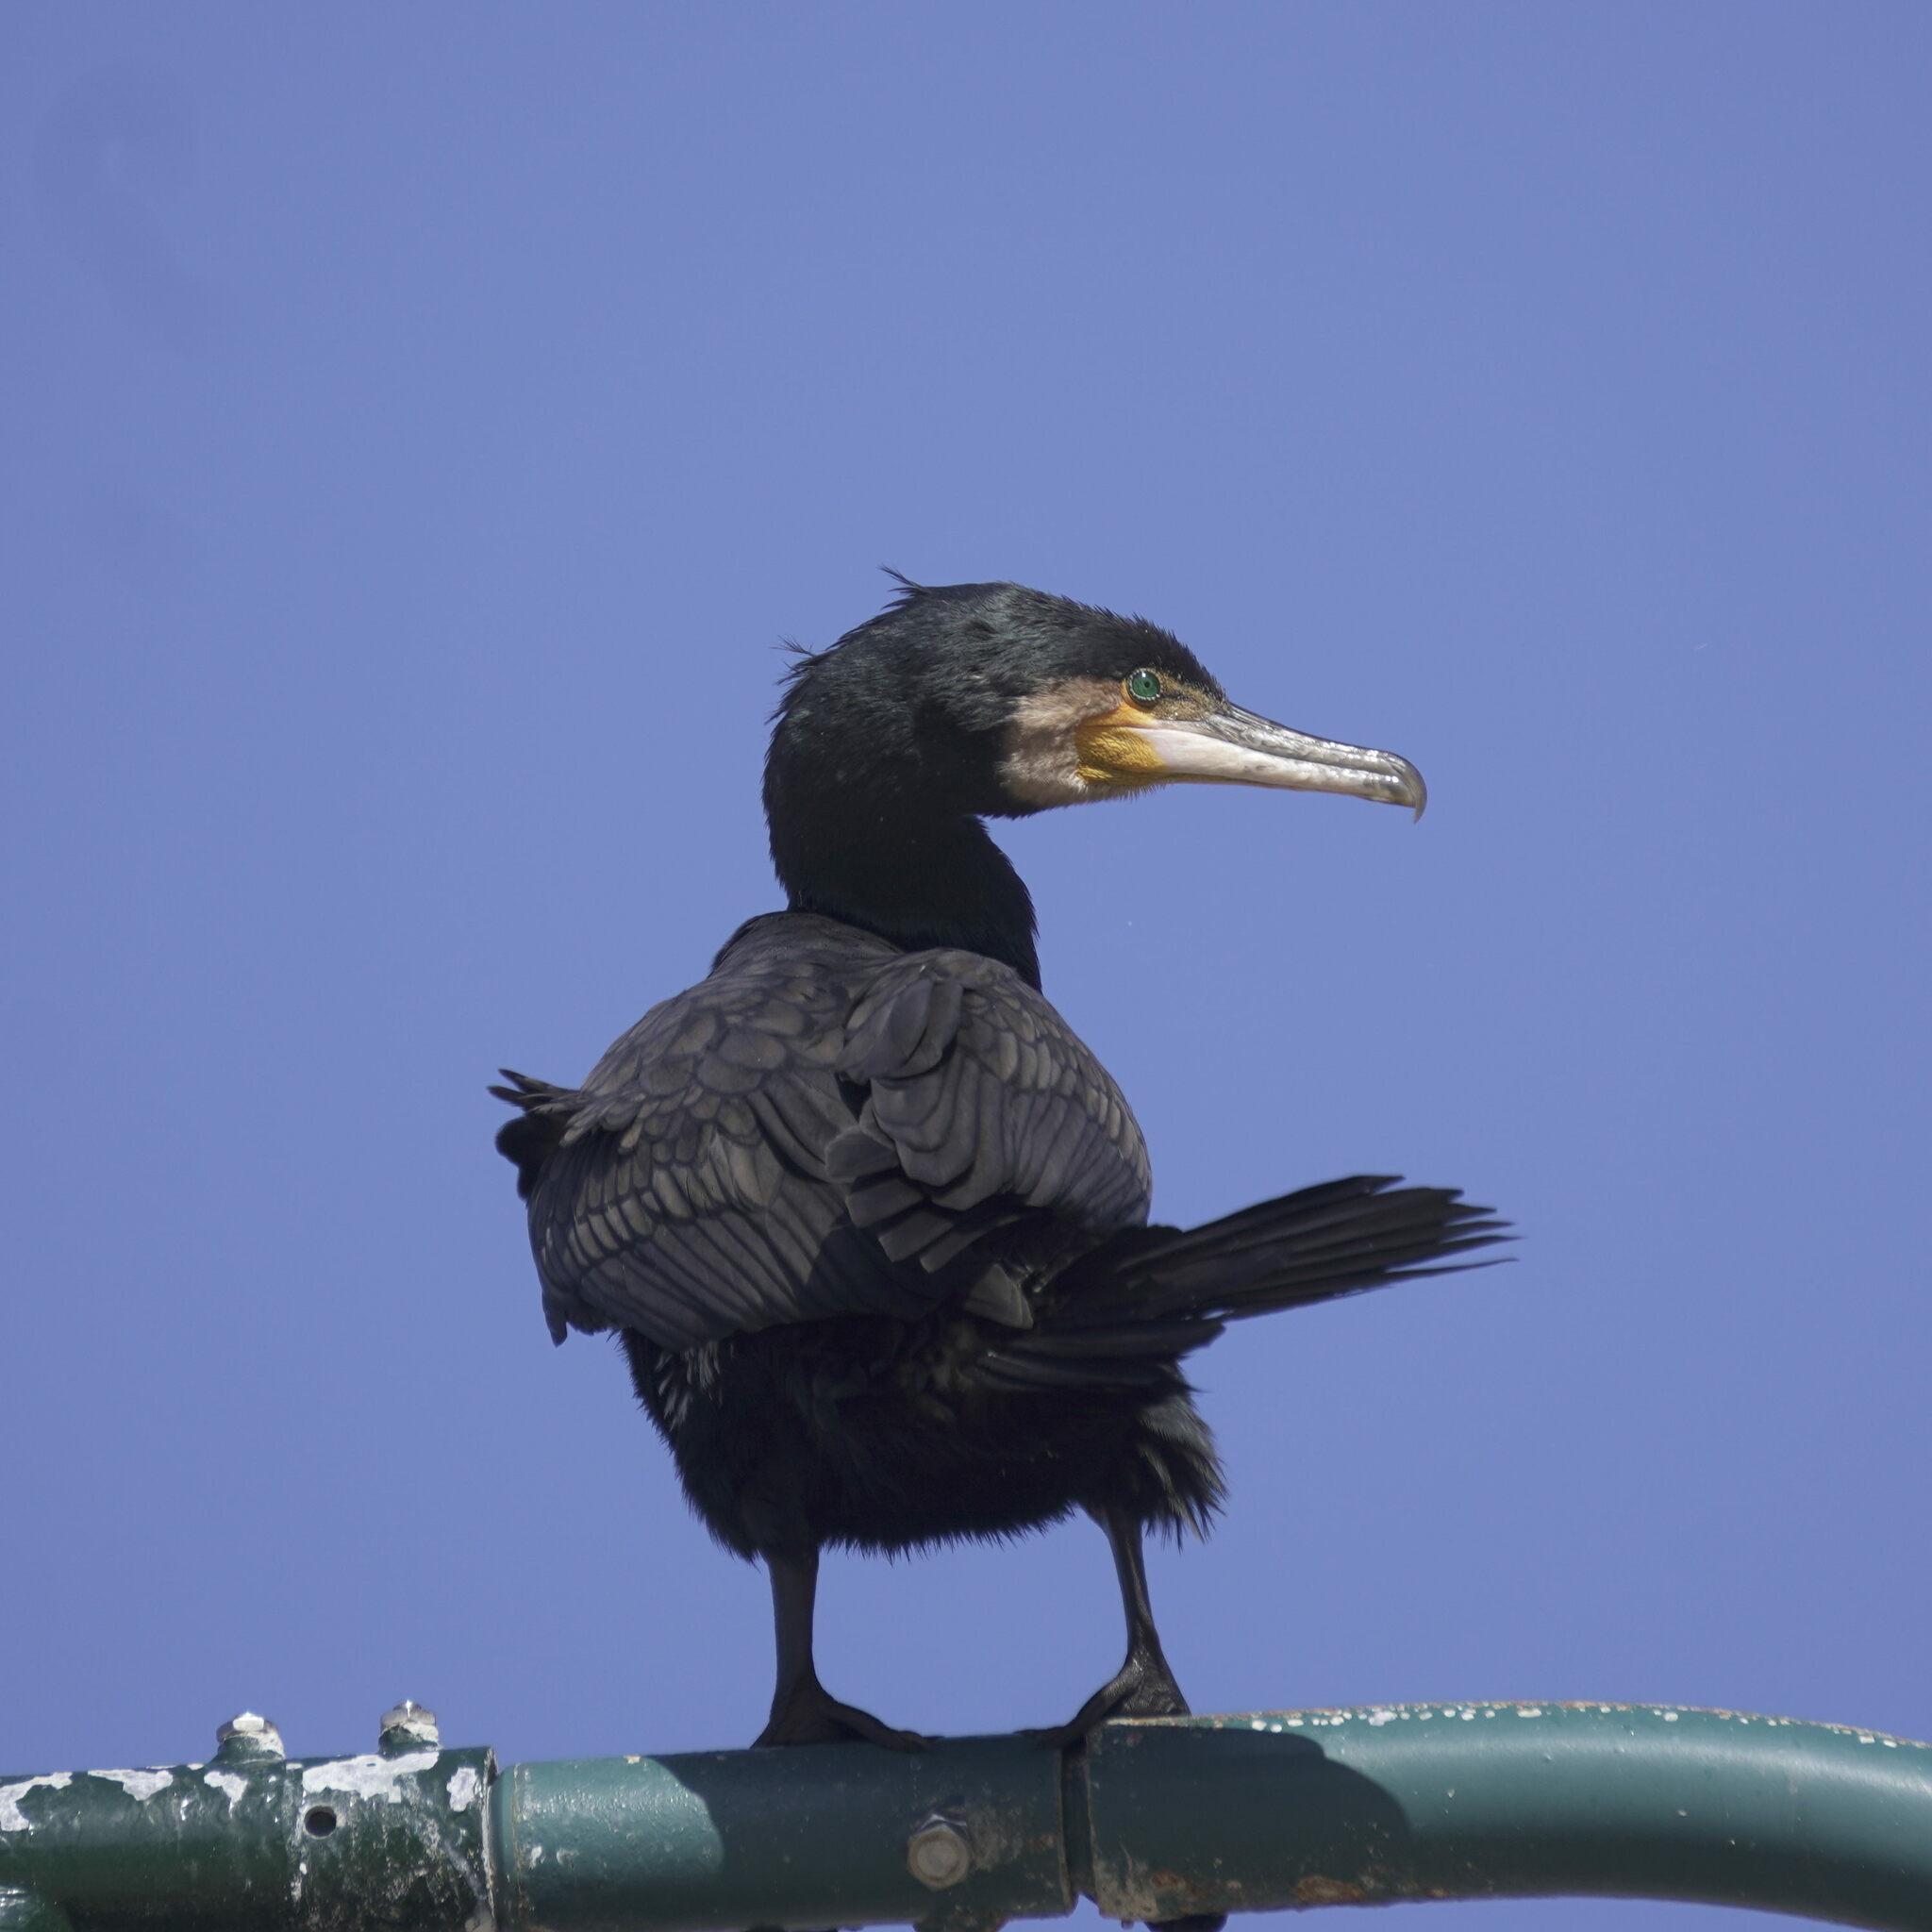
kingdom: Animalia
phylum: Chordata
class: Aves
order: Suliformes
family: Phalacrocoracidae
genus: Phalacrocorax
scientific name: Phalacrocorax carbo
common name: Great cormorant
